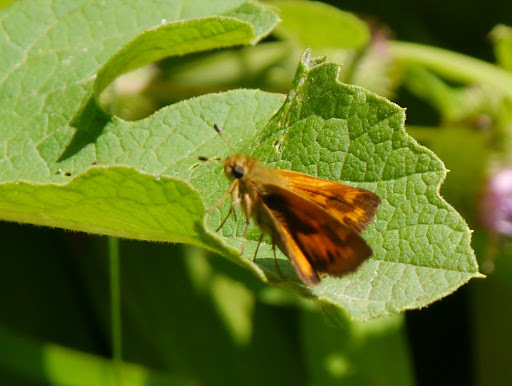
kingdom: Animalia
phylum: Arthropoda
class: Insecta
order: Lepidoptera
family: Hesperiidae
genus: Ochlodes
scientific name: Ochlodes sylvanoides
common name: Woodland skipper
